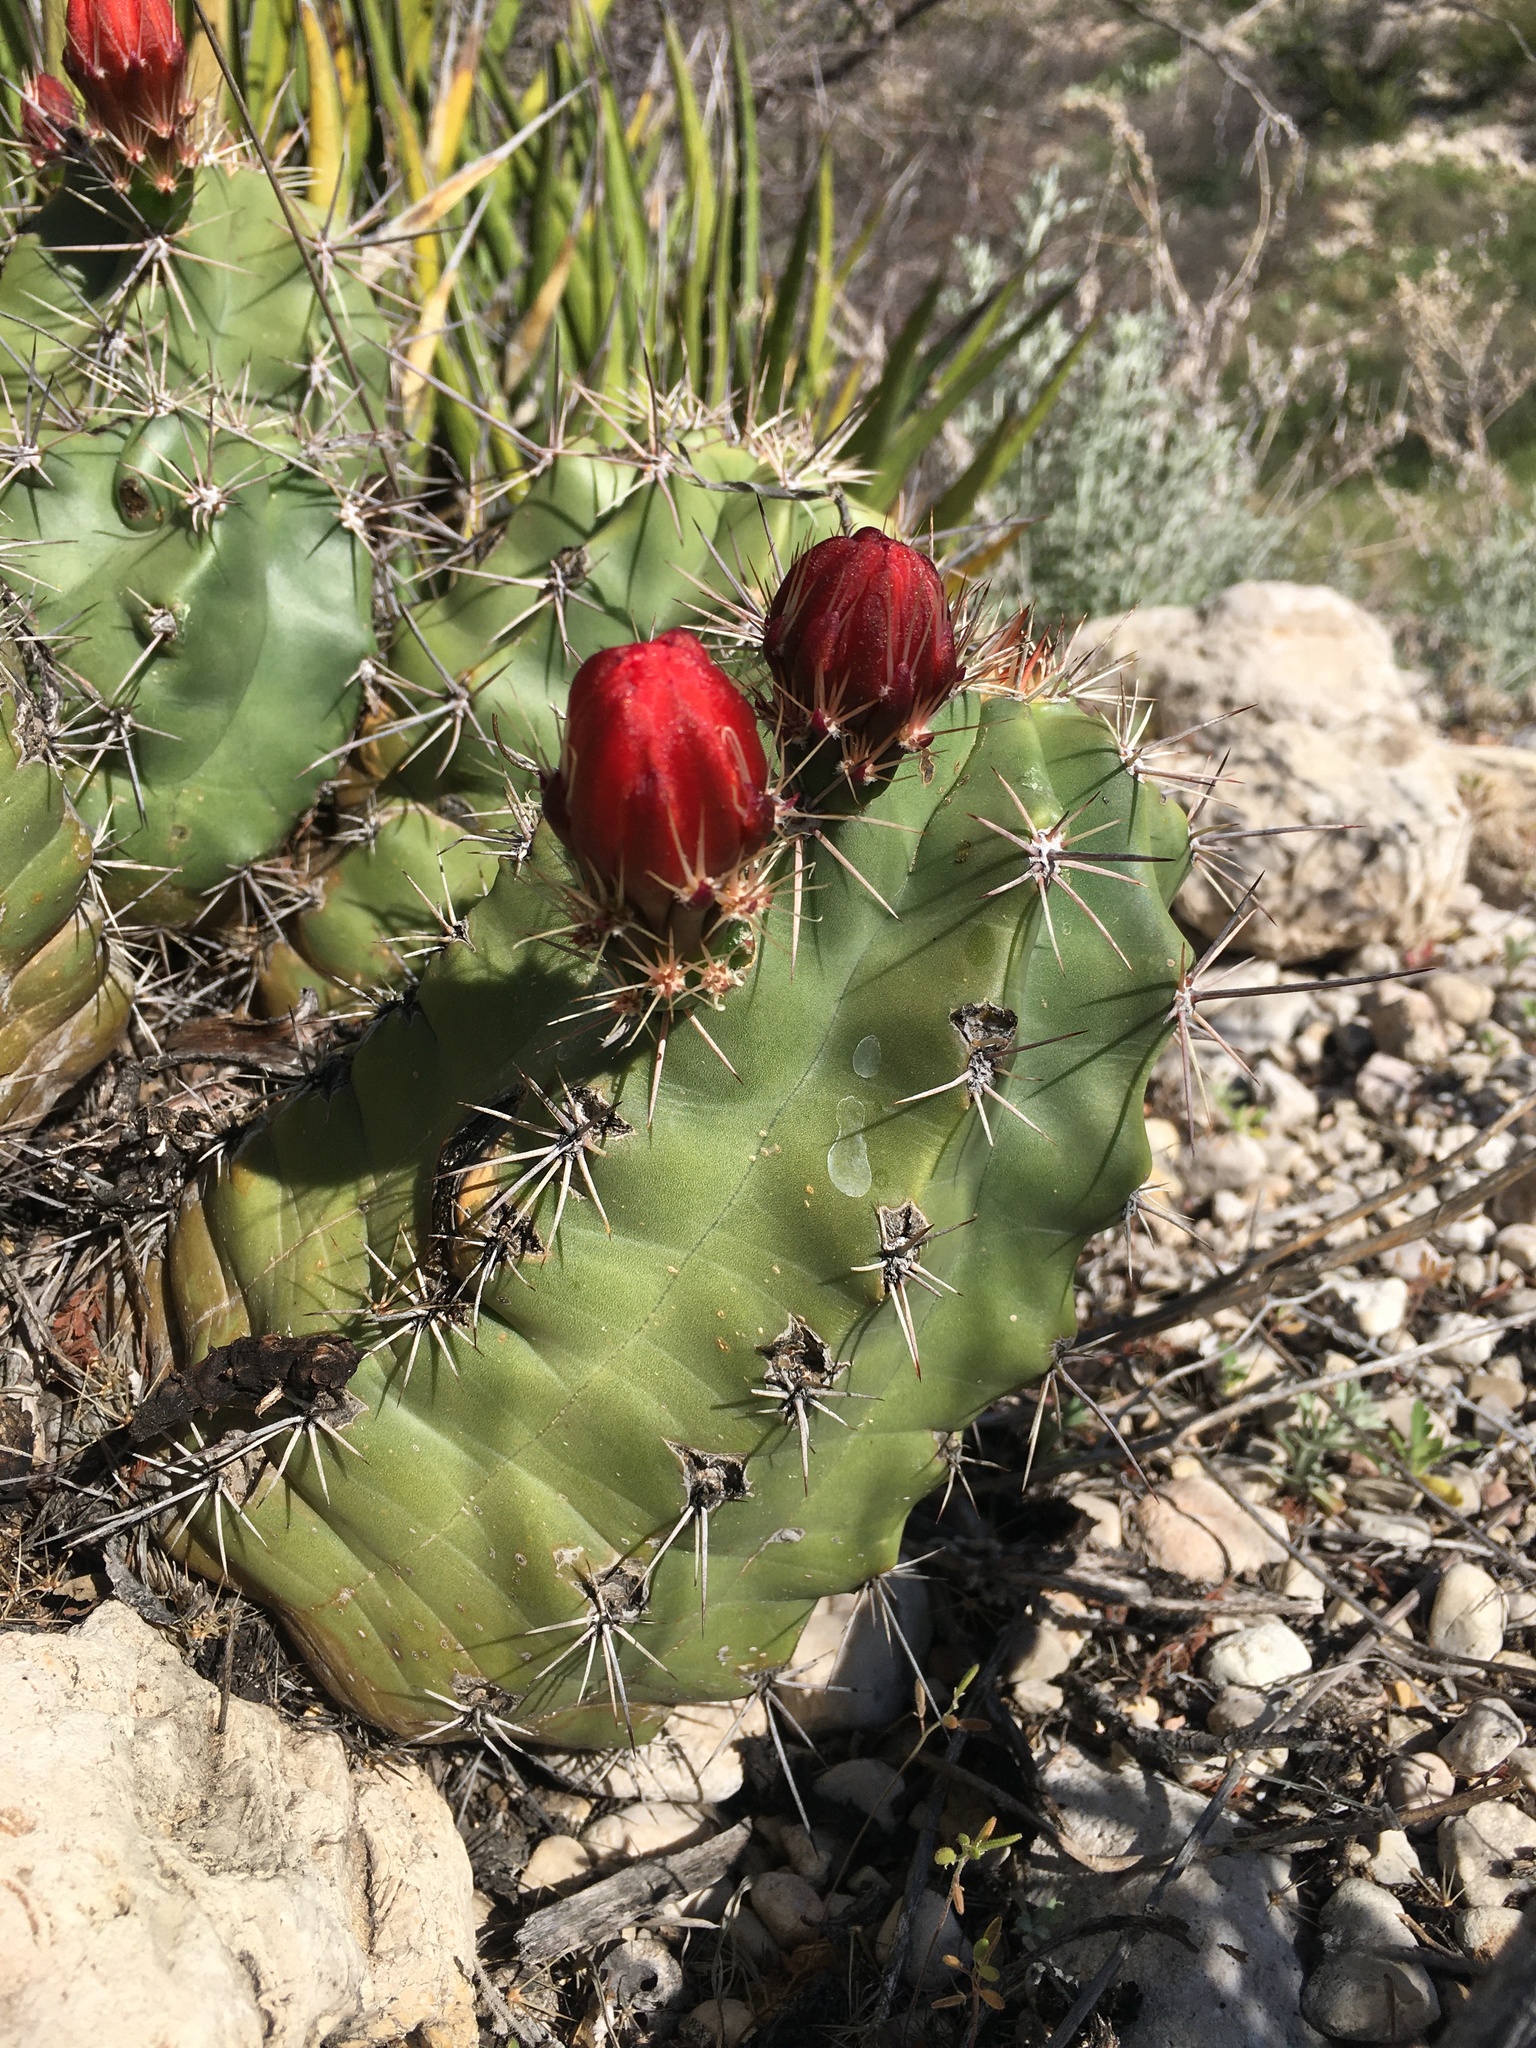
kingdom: Plantae
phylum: Tracheophyta
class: Magnoliopsida
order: Caryophyllales
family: Cactaceae
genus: Echinocereus
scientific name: Echinocereus coccineus
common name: Scarlet hedgehog cactus
